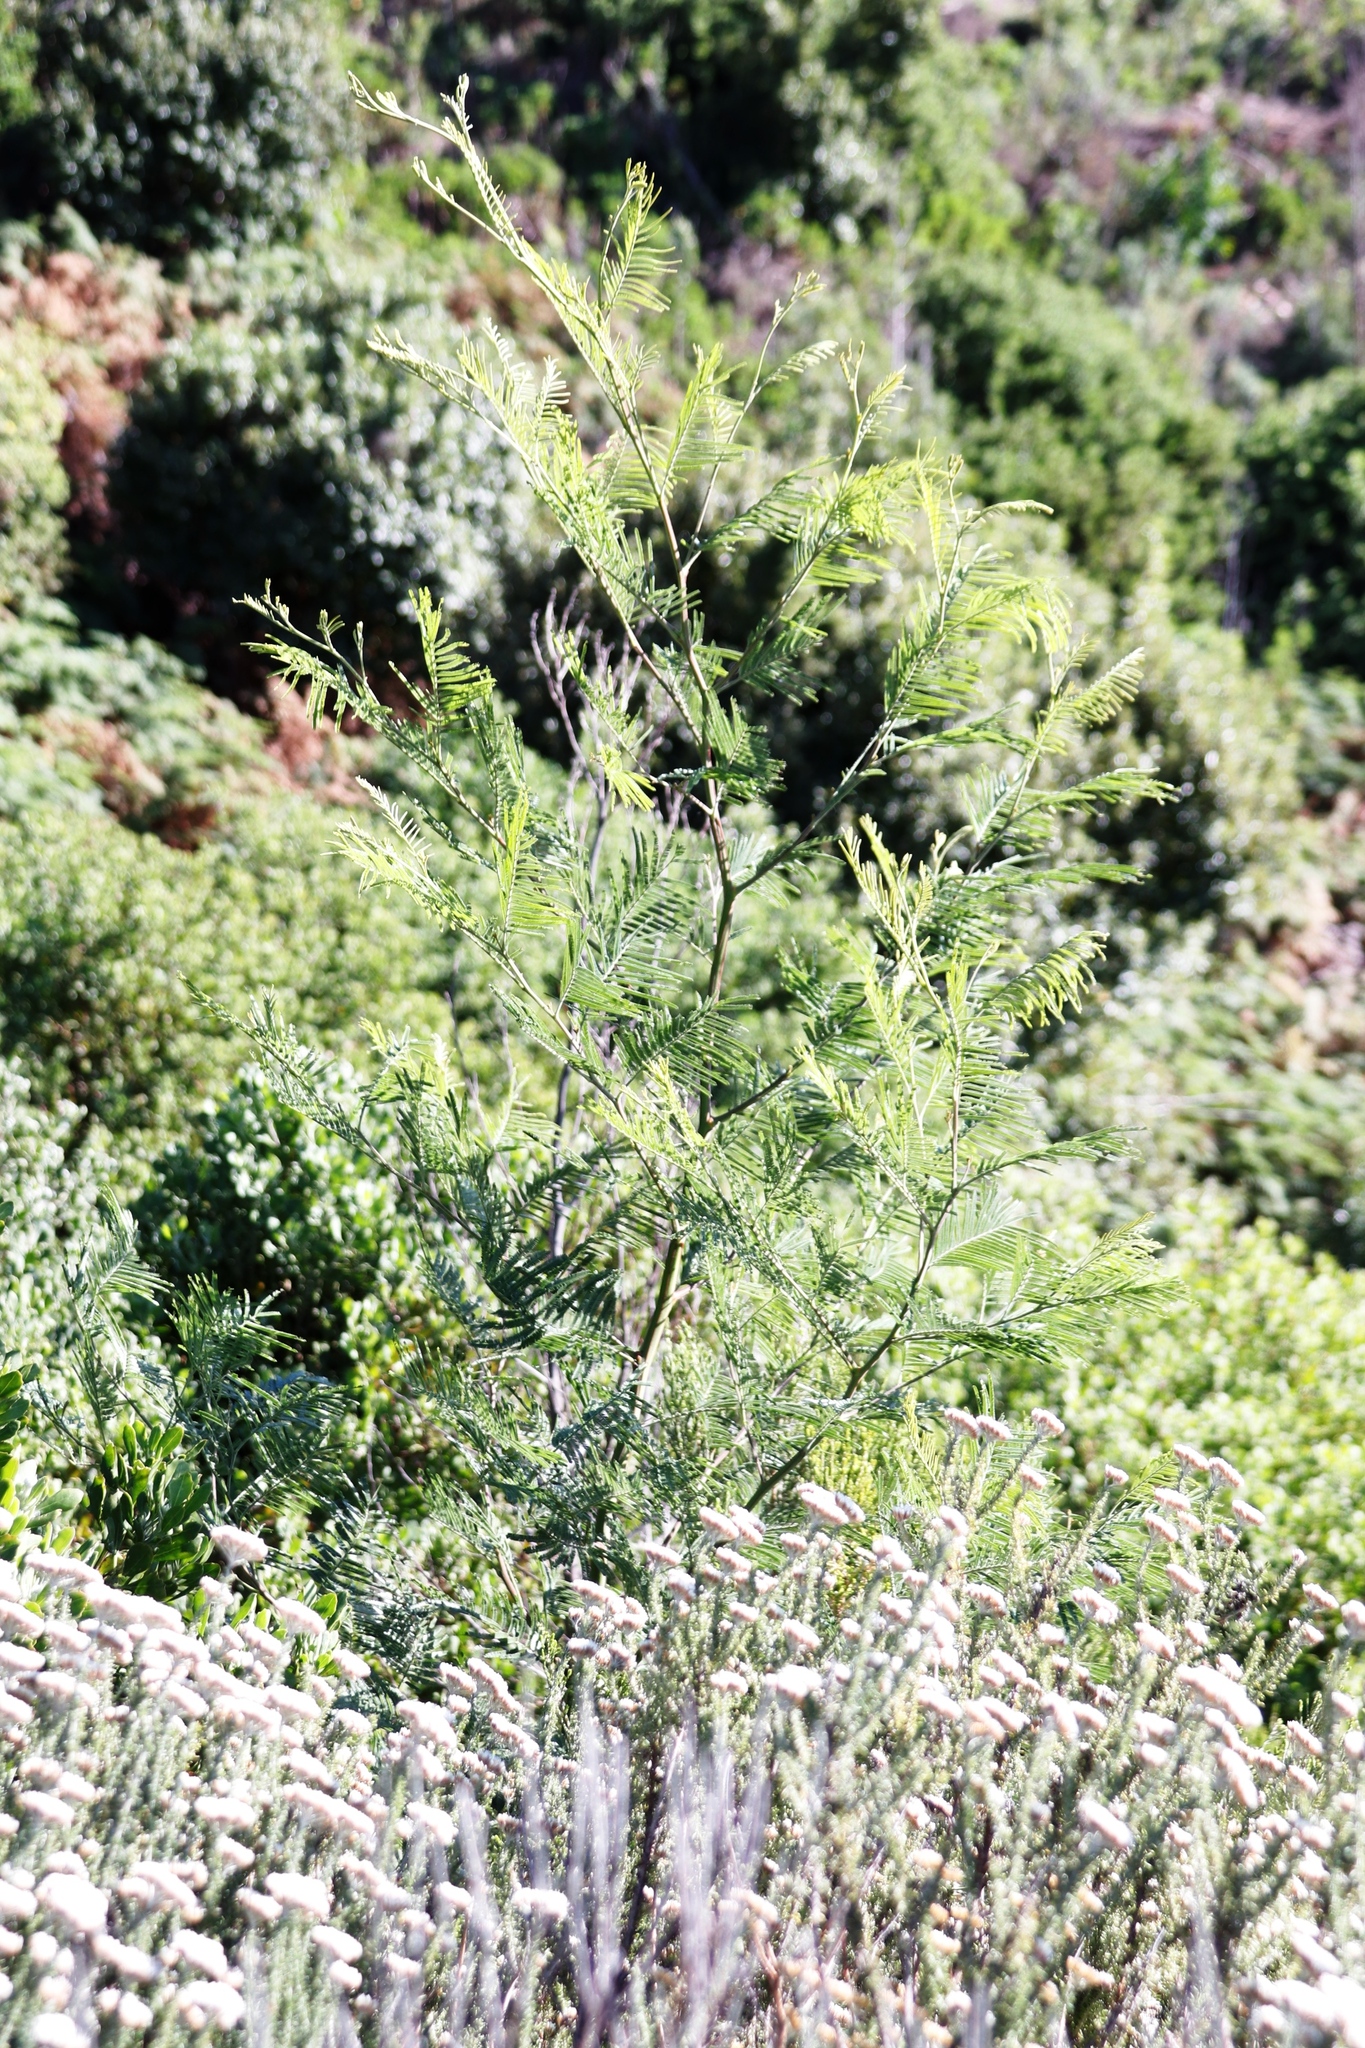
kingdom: Plantae
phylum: Tracheophyta
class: Magnoliopsida
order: Fabales
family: Fabaceae
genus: Acacia
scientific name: Acacia mearnsii
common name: Black wattle
